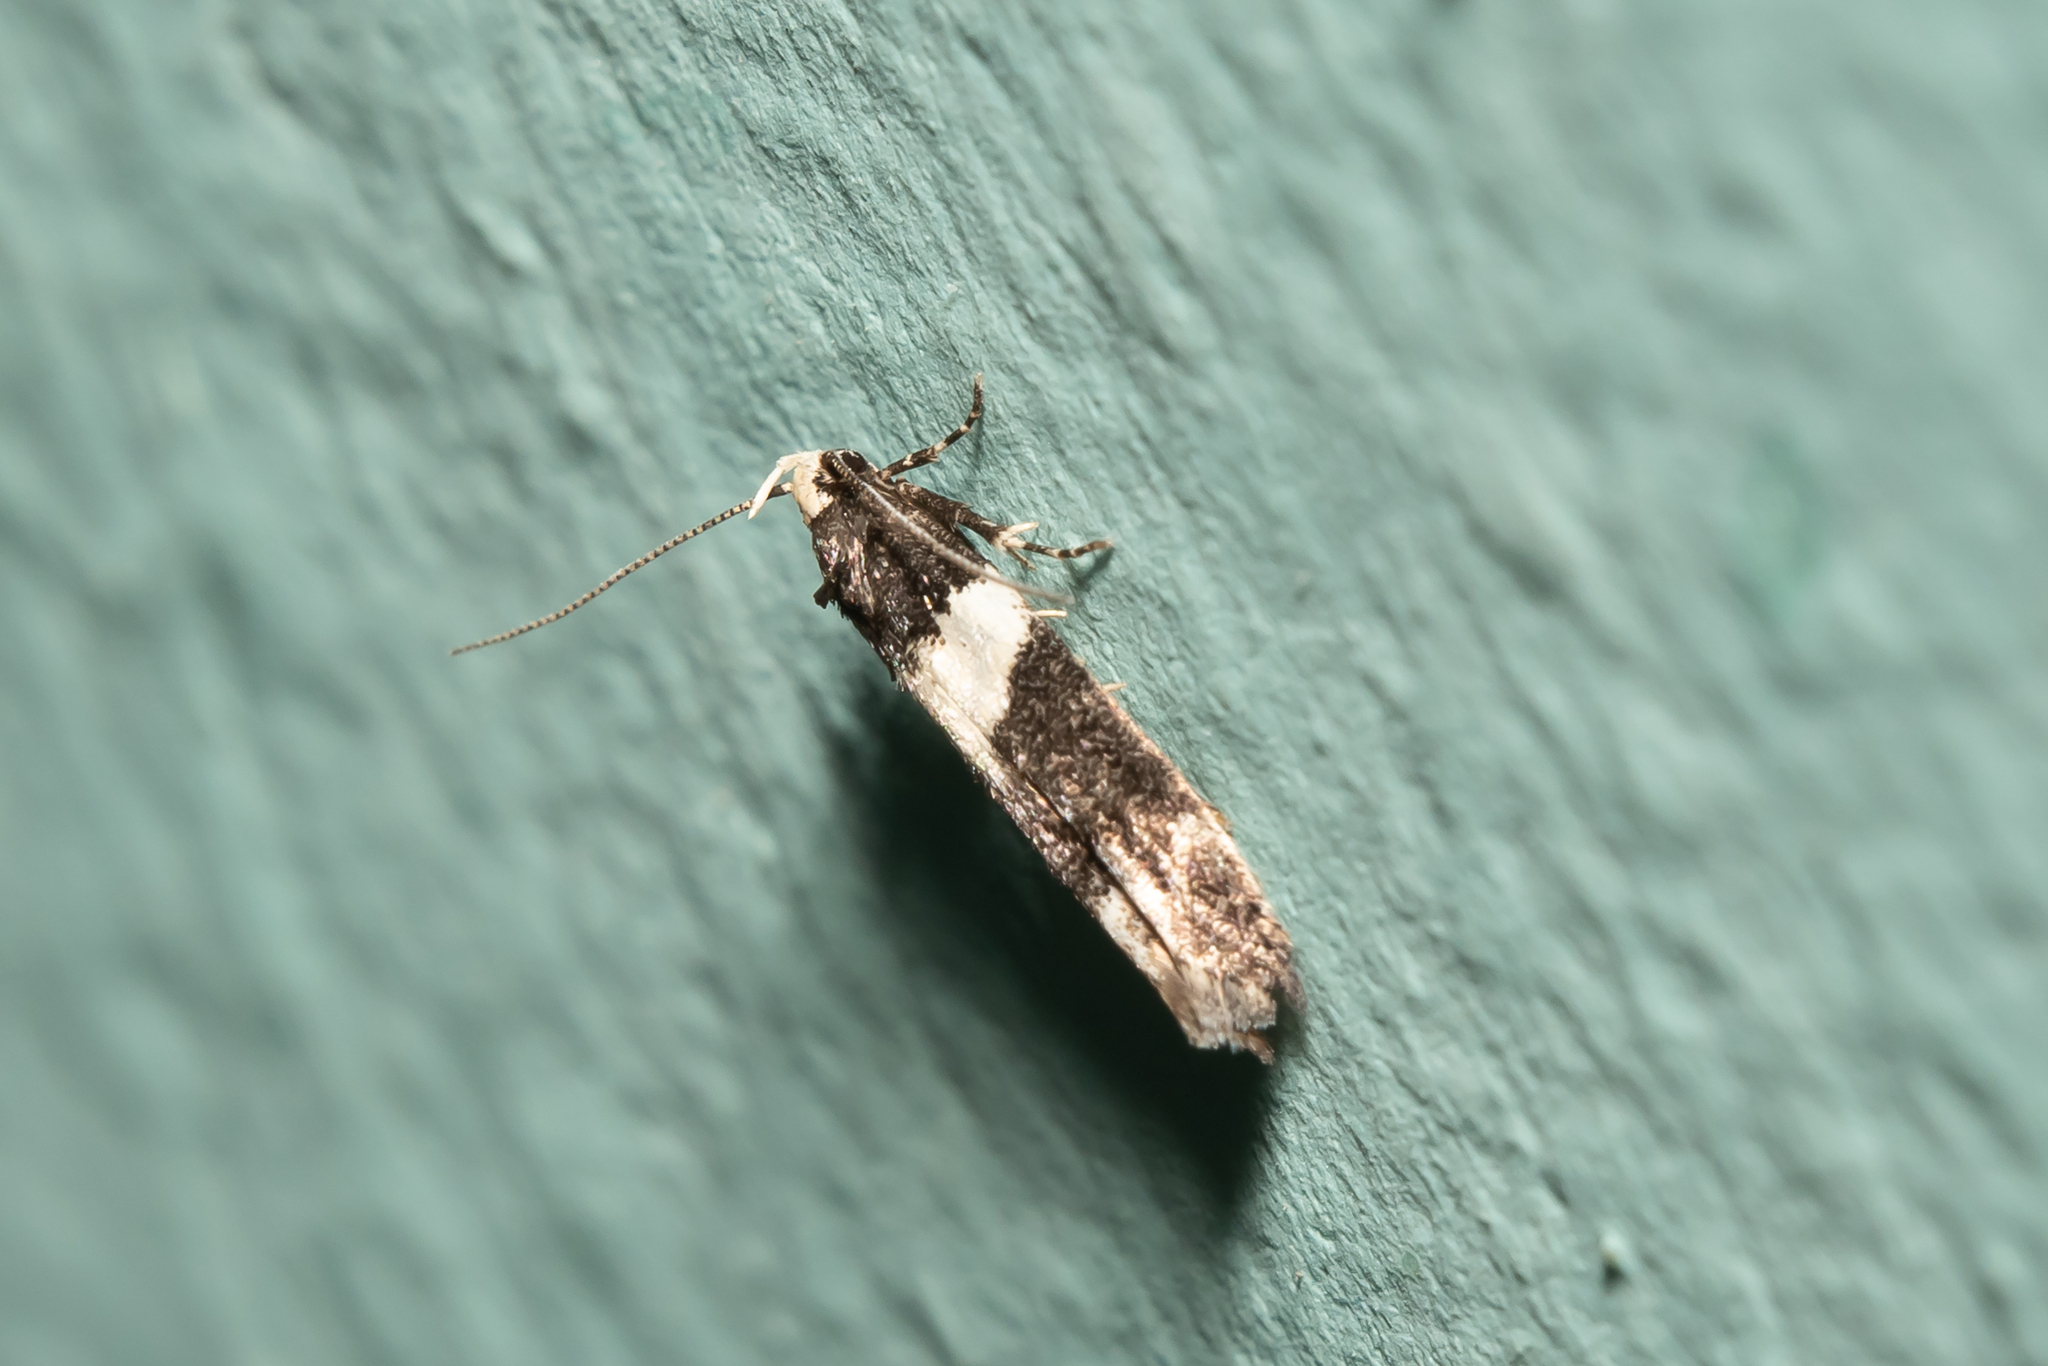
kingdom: Animalia
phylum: Arthropoda
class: Insecta
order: Lepidoptera
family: Gelechiidae
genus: Recurvaria
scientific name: Recurvaria leucatella
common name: White-barred groundling
